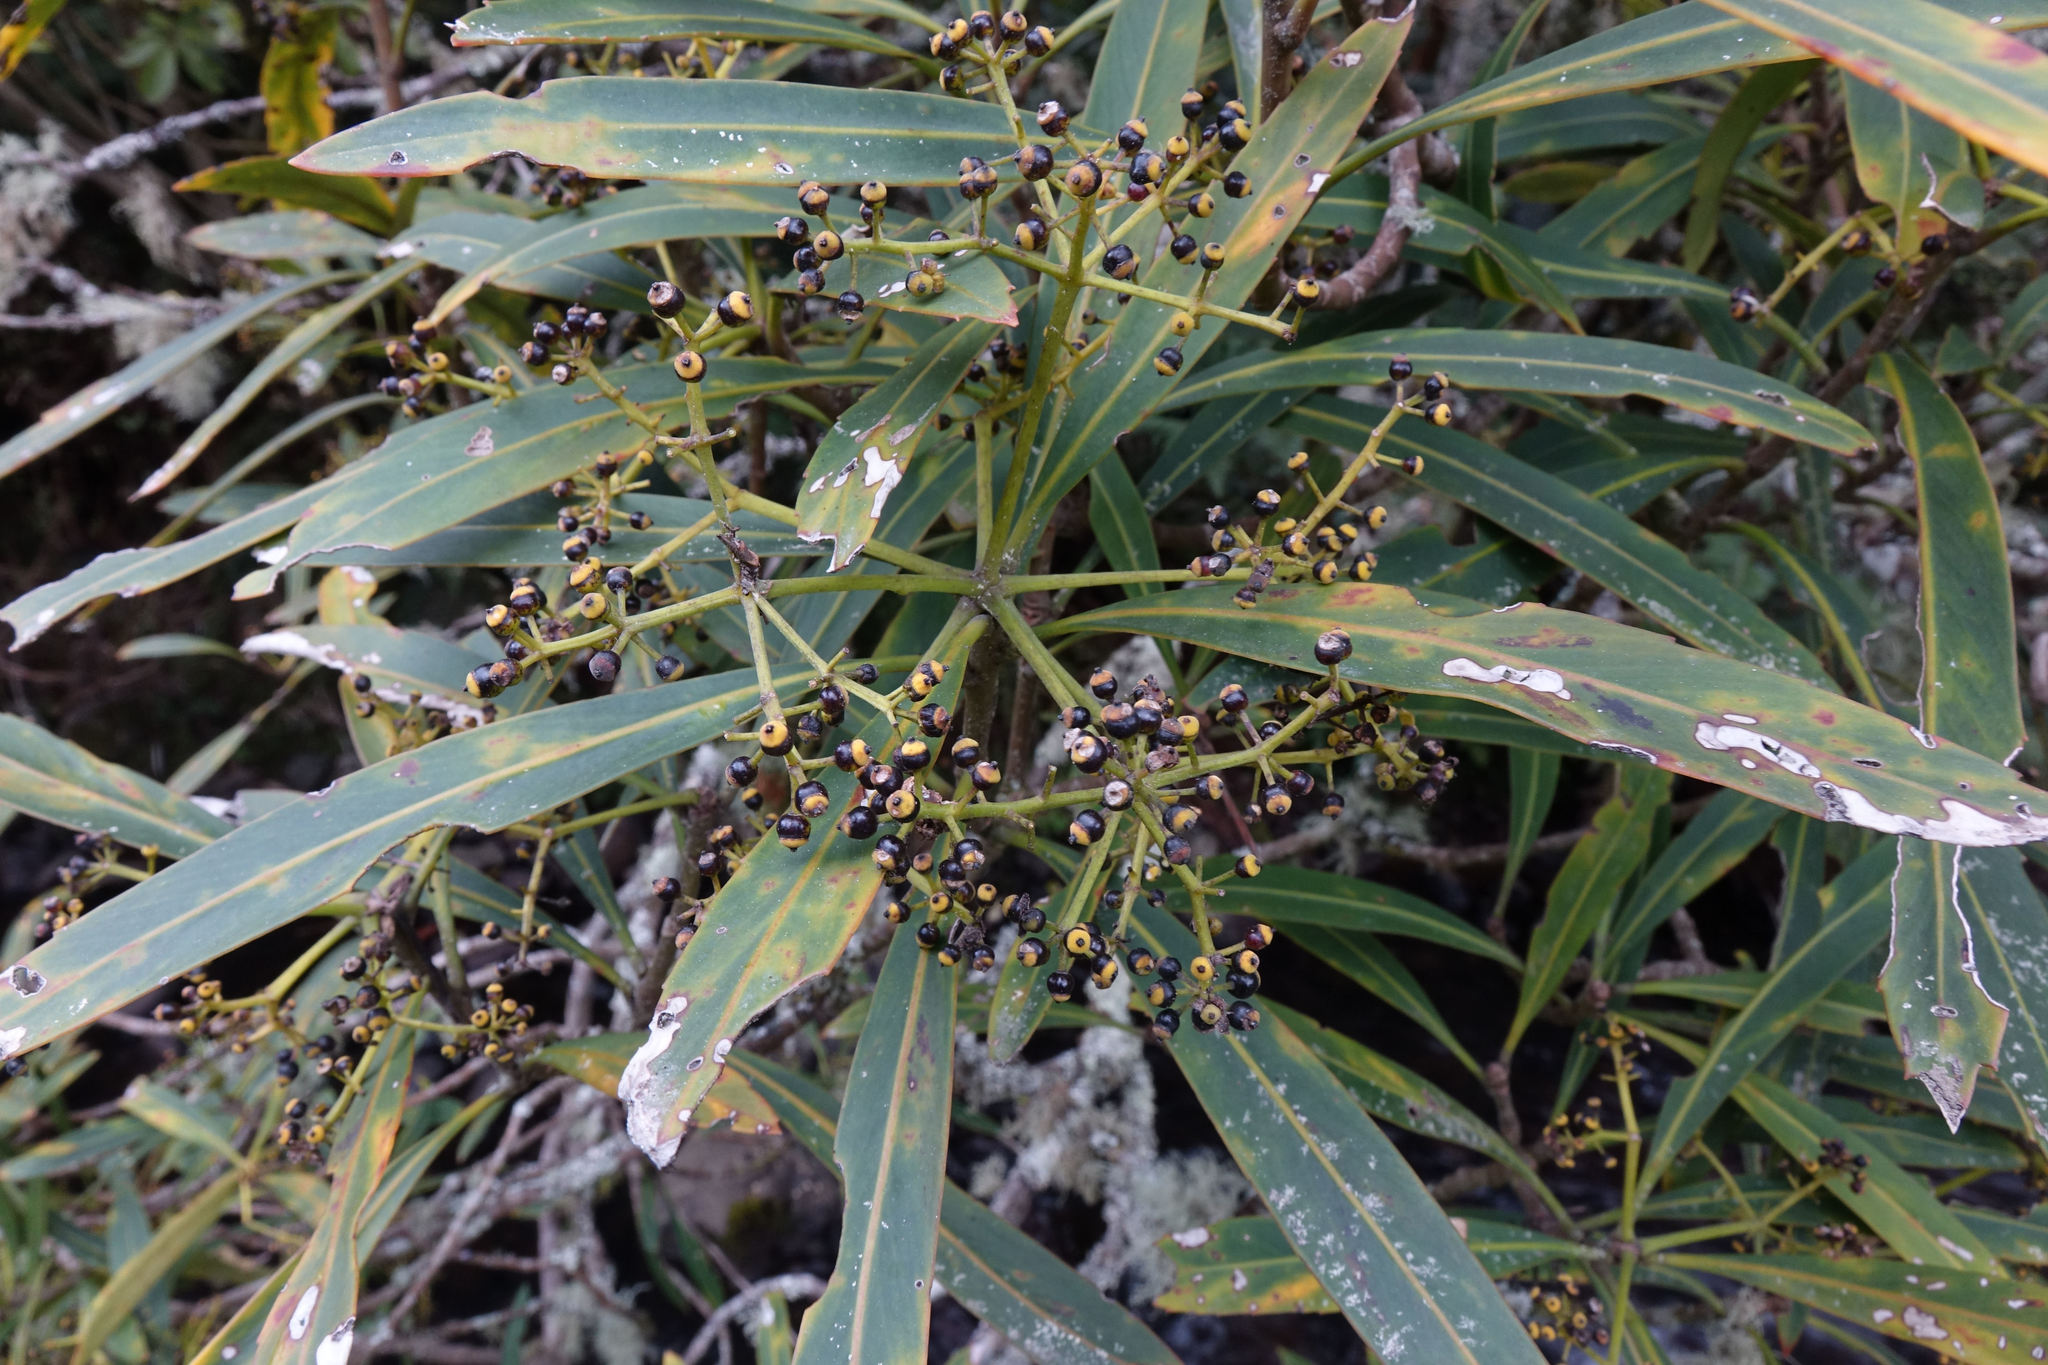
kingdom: Plantae
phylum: Tracheophyta
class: Magnoliopsida
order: Apiales
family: Araliaceae
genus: Pseudopanax
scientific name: Pseudopanax crassifolius
